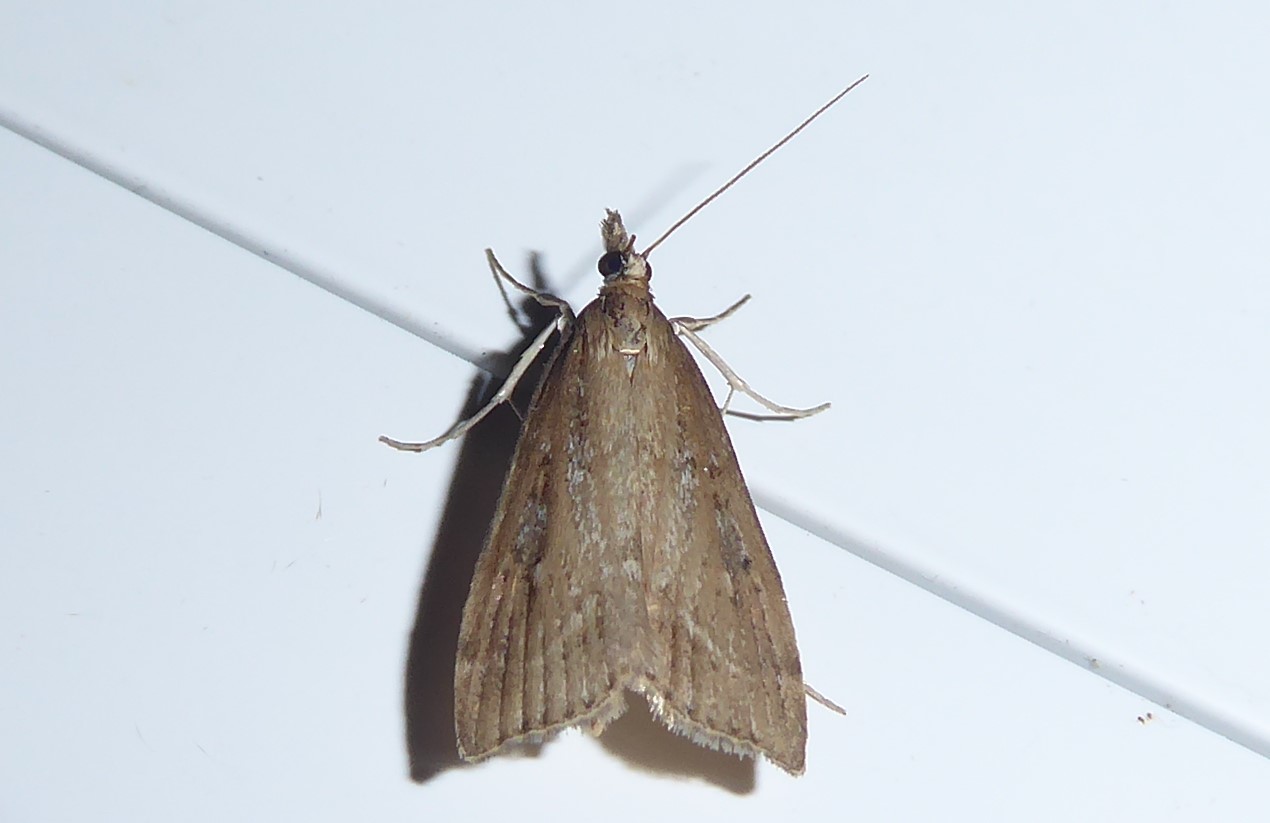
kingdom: Animalia
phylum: Arthropoda
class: Insecta
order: Lepidoptera
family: Crambidae
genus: Eudonia
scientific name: Eudonia octophora
